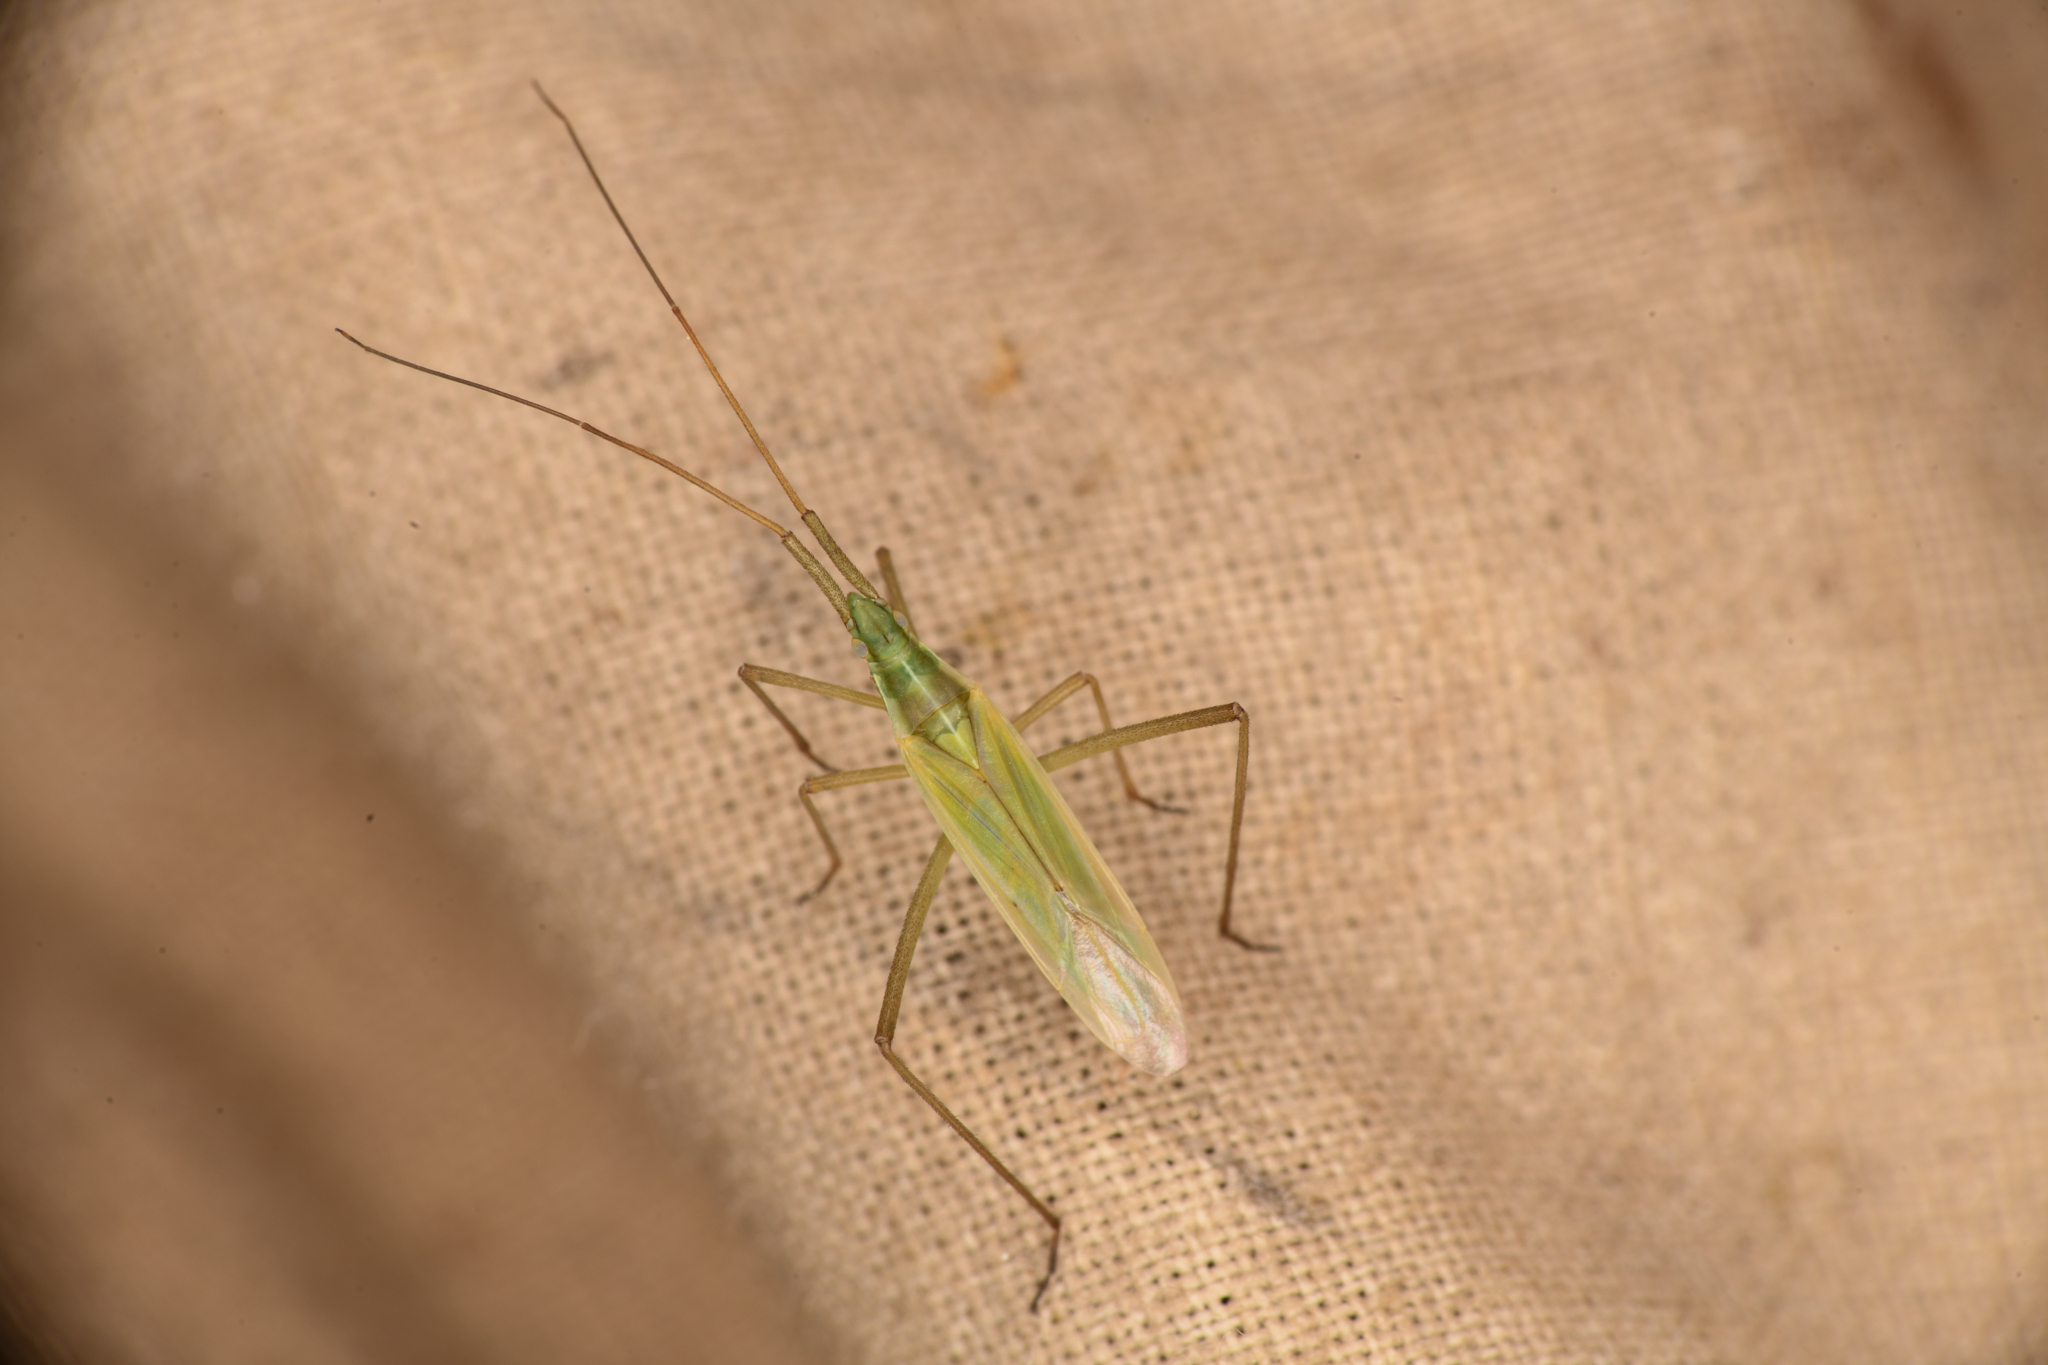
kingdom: Animalia
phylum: Arthropoda
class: Insecta
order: Hemiptera
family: Miridae
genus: Megaloceroea
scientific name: Megaloceroea recticornis
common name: Plant bug
